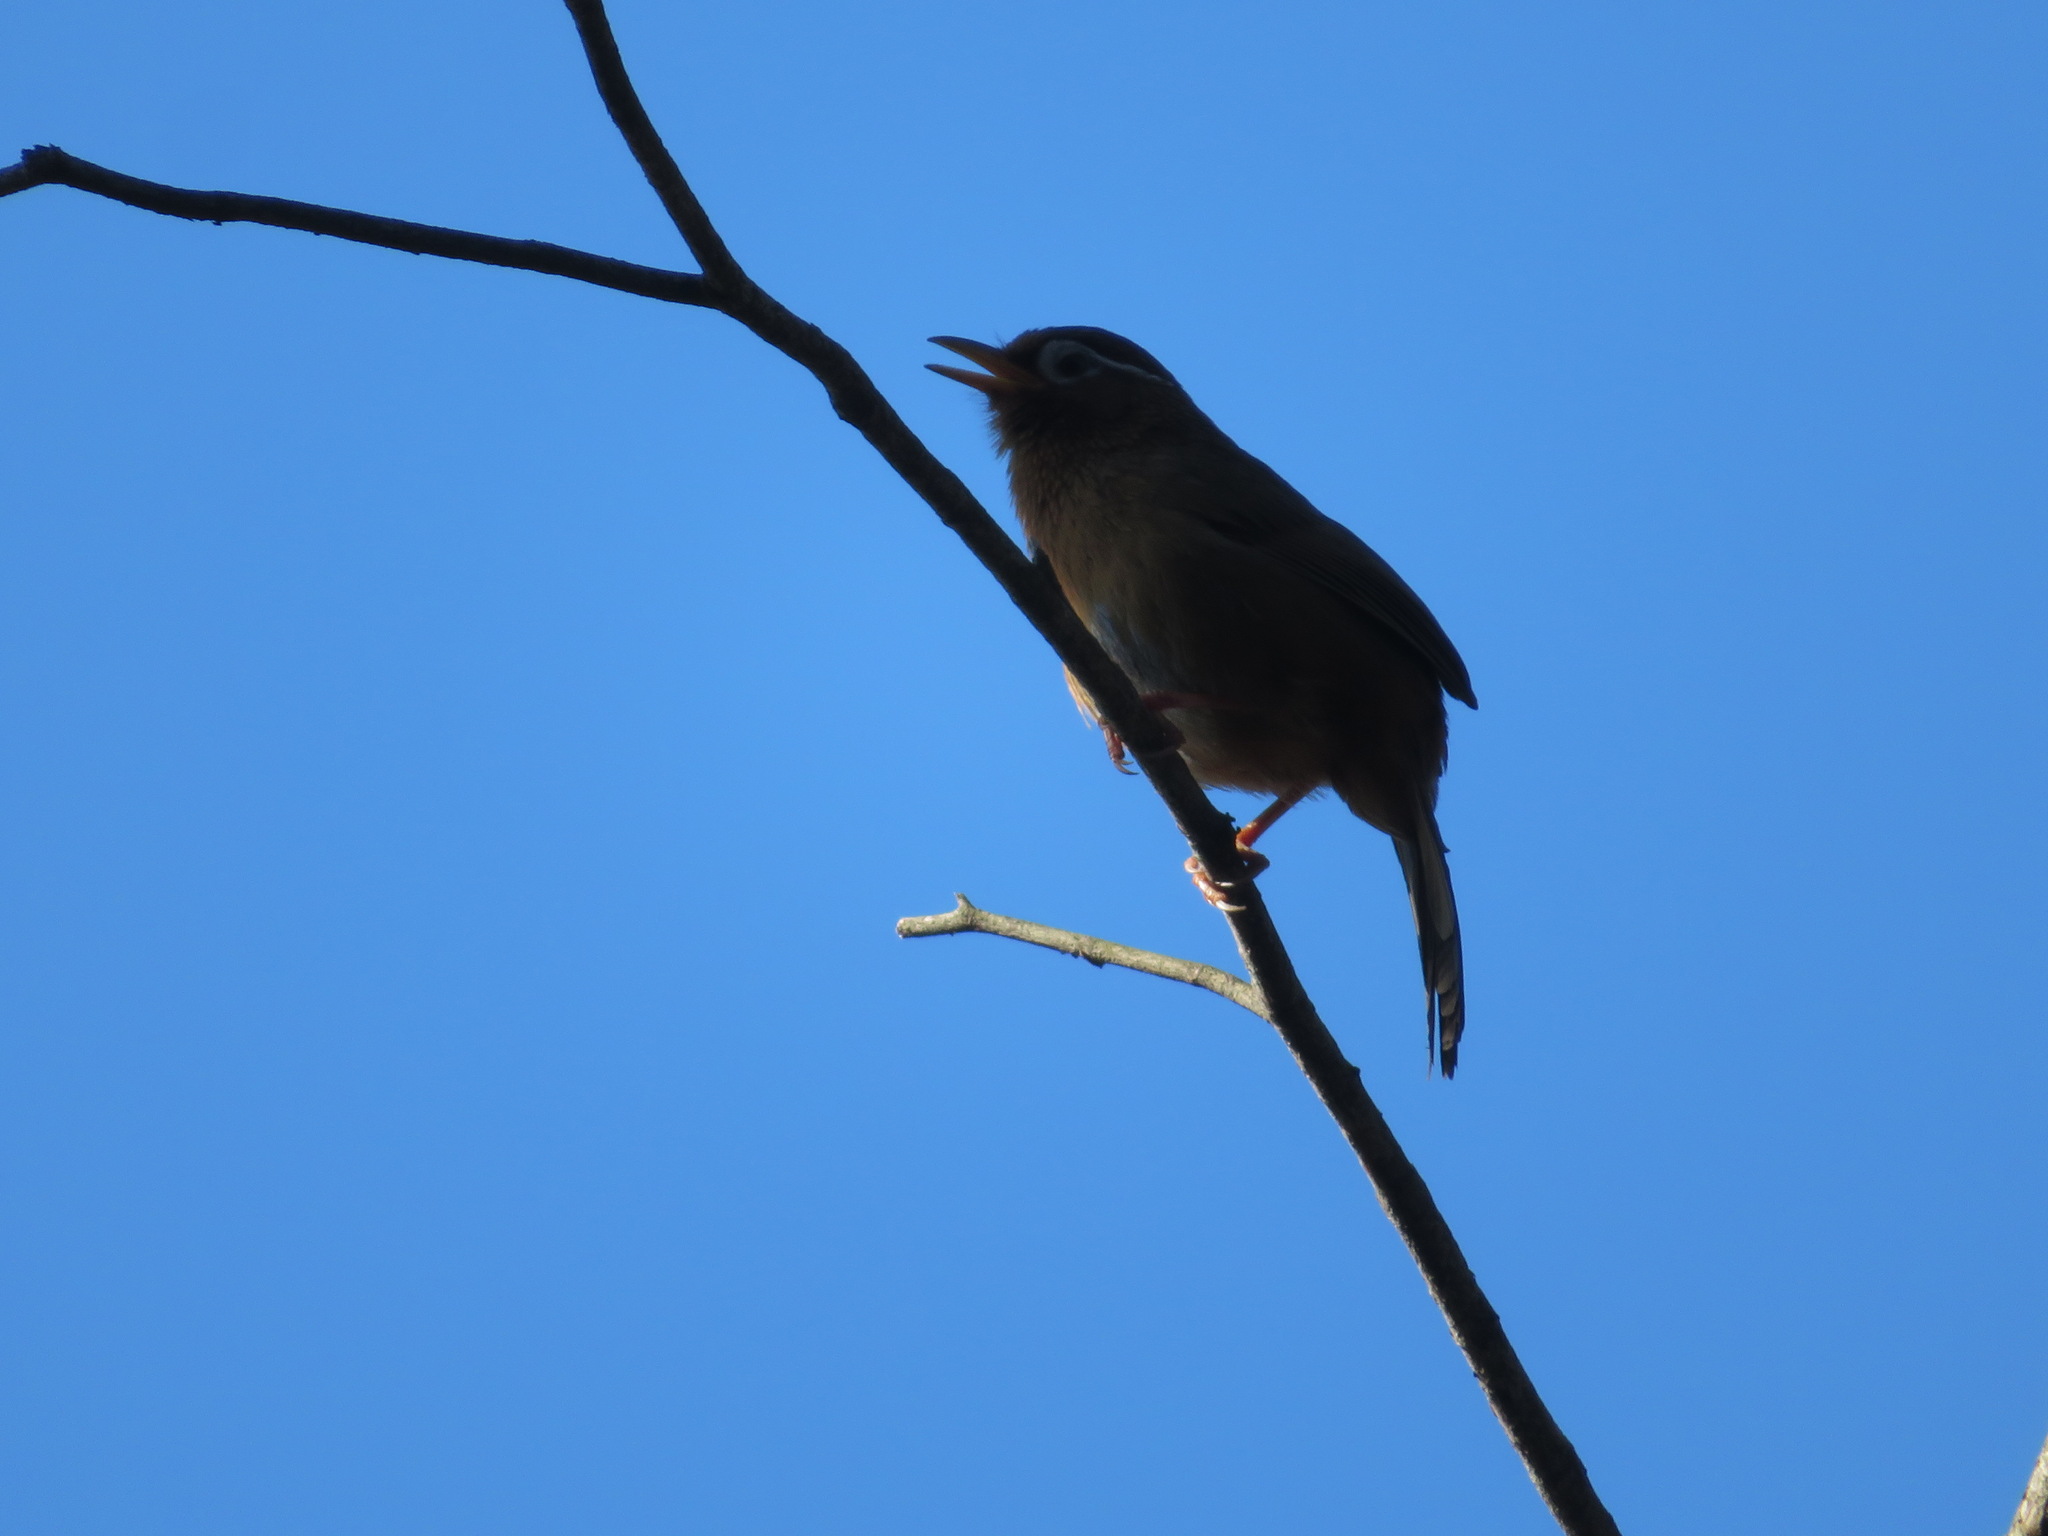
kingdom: Animalia
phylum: Chordata
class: Aves
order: Passeriformes
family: Leiothrichidae
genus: Garrulax
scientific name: Garrulax canorus
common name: Chinese hwamei
